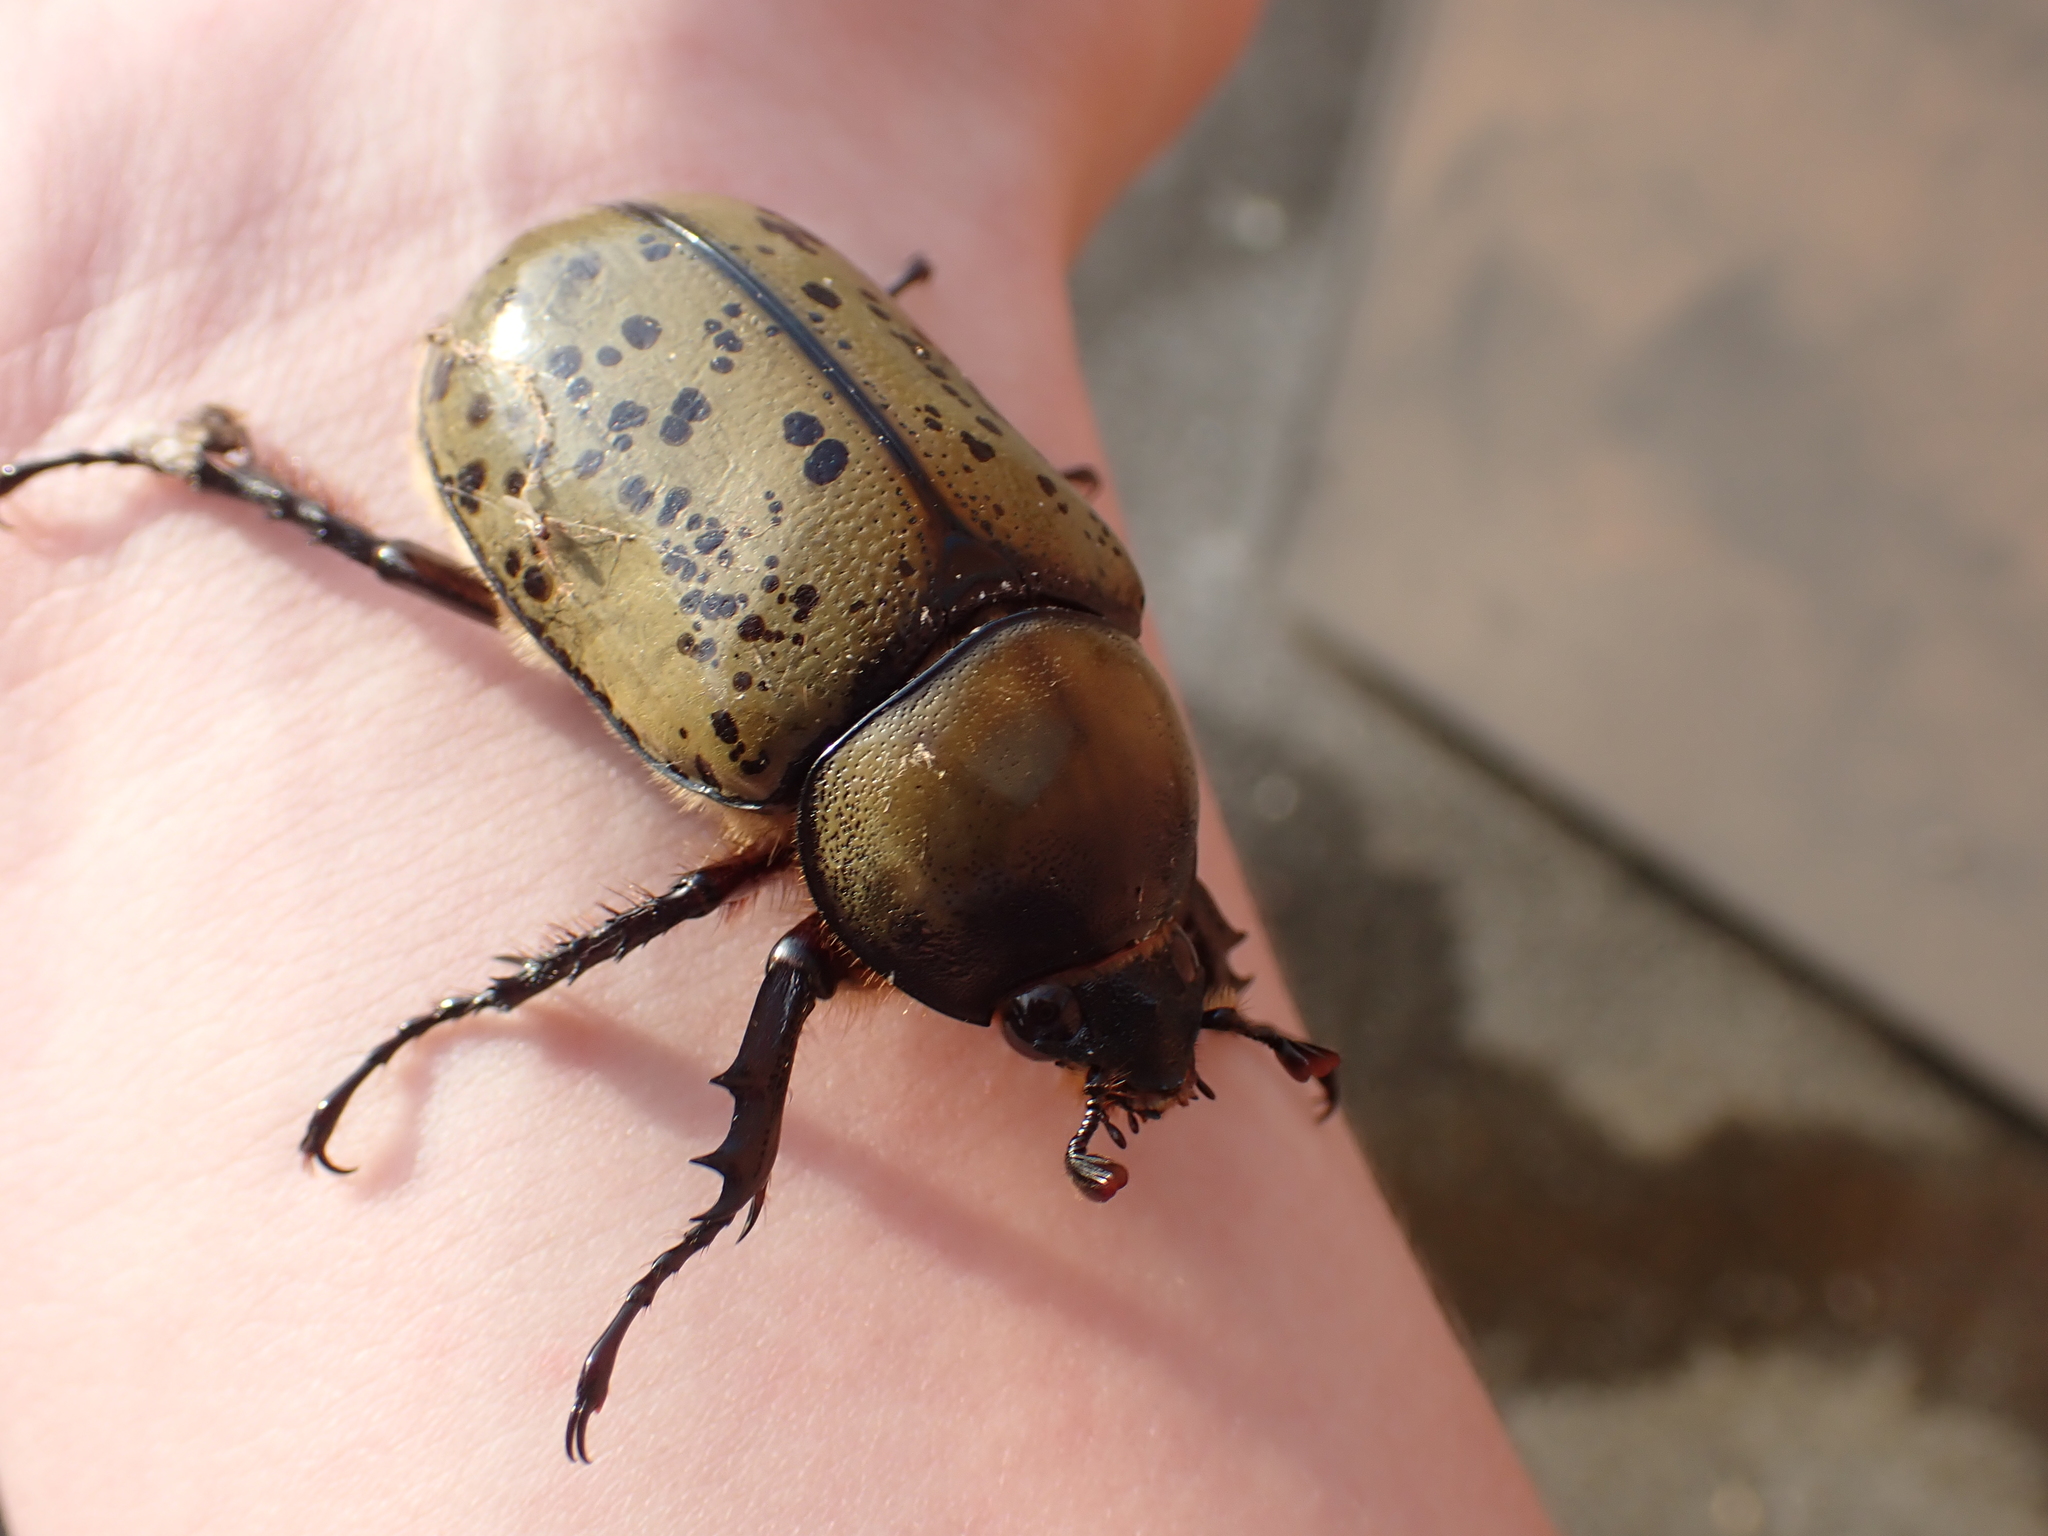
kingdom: Animalia
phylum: Arthropoda
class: Insecta
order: Coleoptera
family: Scarabaeidae
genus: Dynastes
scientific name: Dynastes tityus
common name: Eastern hercules beetle
